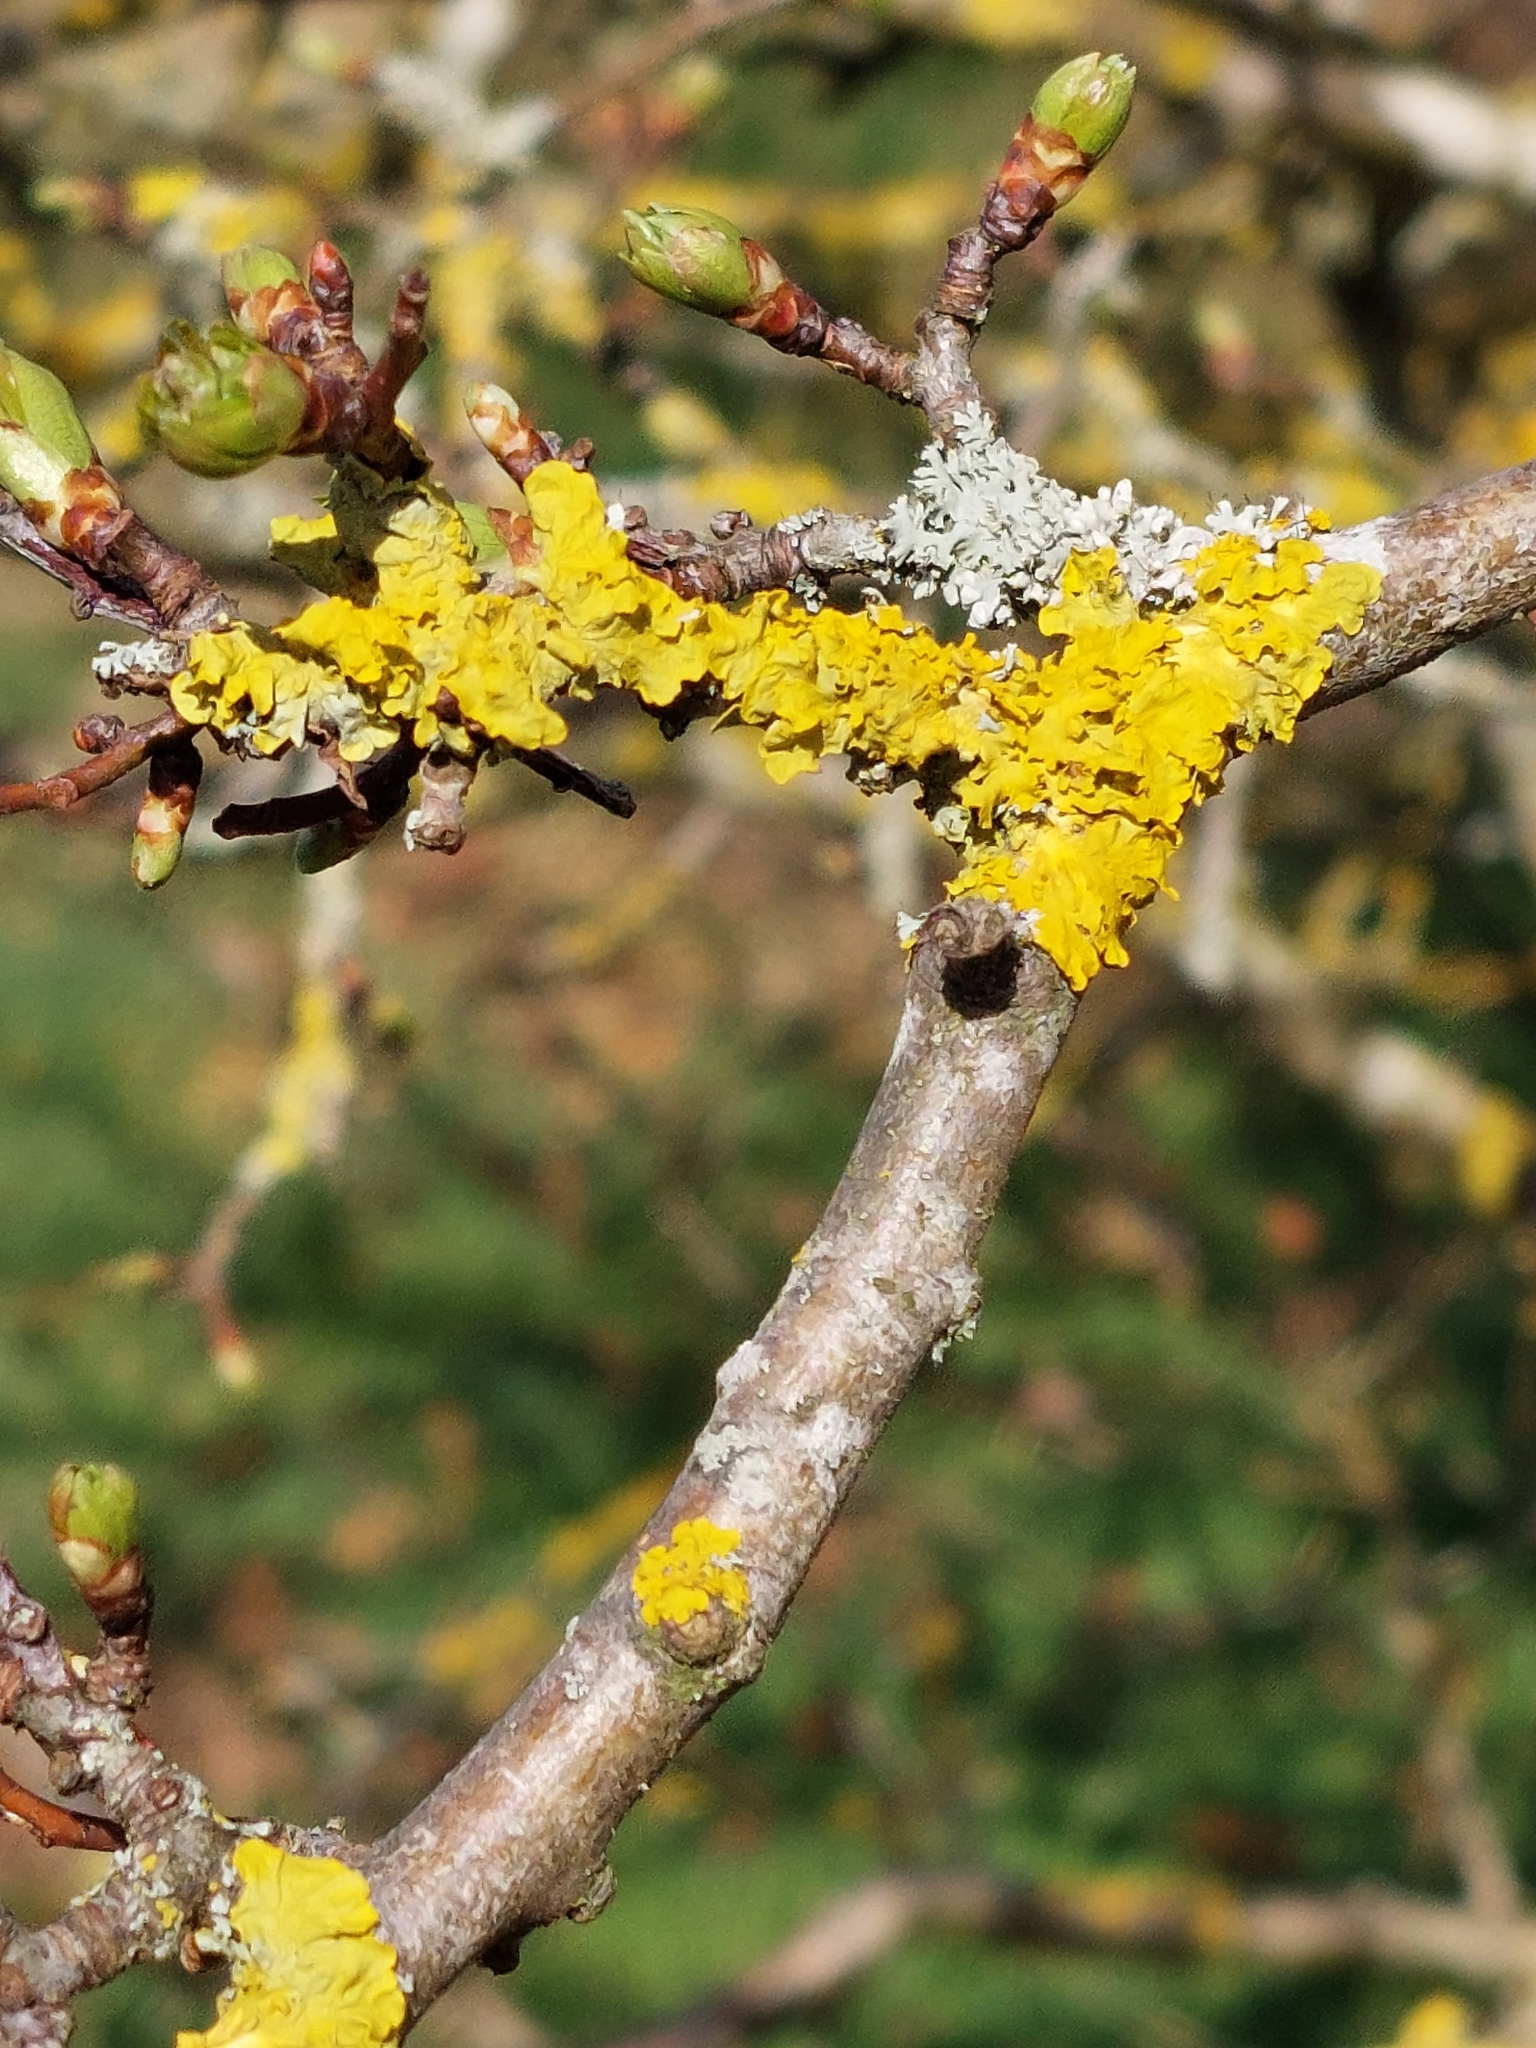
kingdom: Fungi
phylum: Ascomycota
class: Lecanoromycetes
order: Teloschistales
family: Teloschistaceae
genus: Xanthoria
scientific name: Xanthoria parietina
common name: Common orange lichen
